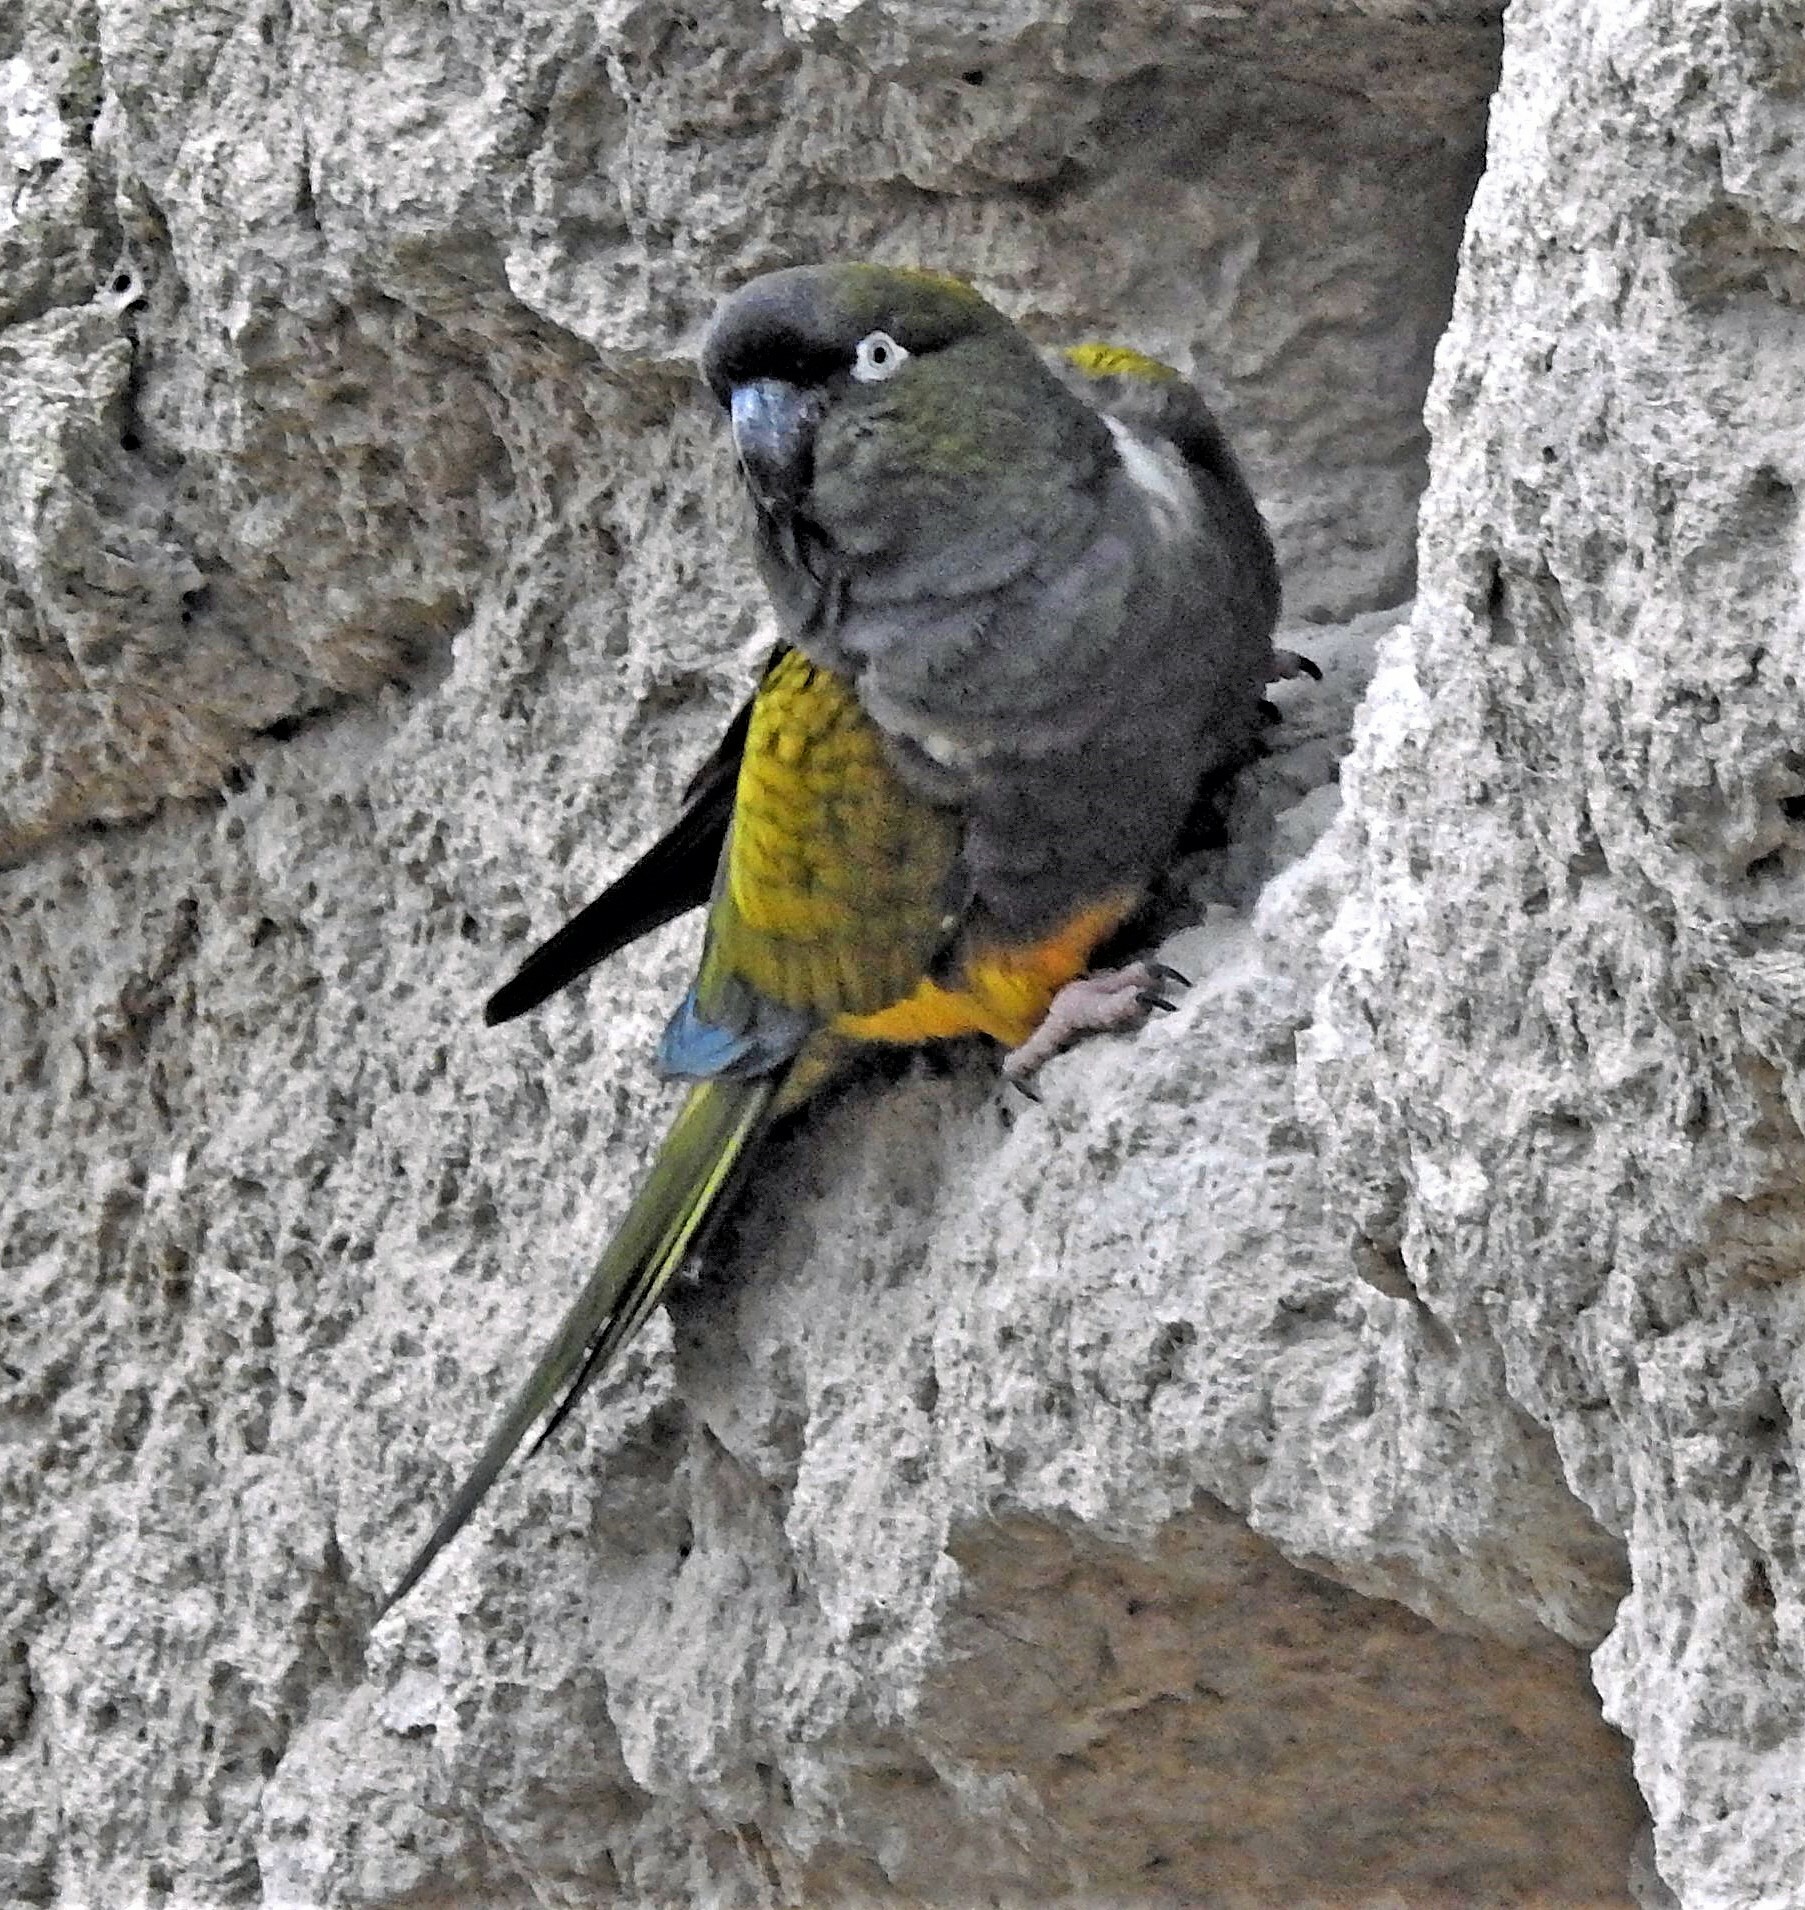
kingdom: Animalia
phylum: Chordata
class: Aves
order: Psittaciformes
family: Psittacidae
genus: Cyanoliseus
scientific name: Cyanoliseus patagonus
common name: Burrowing parrot
